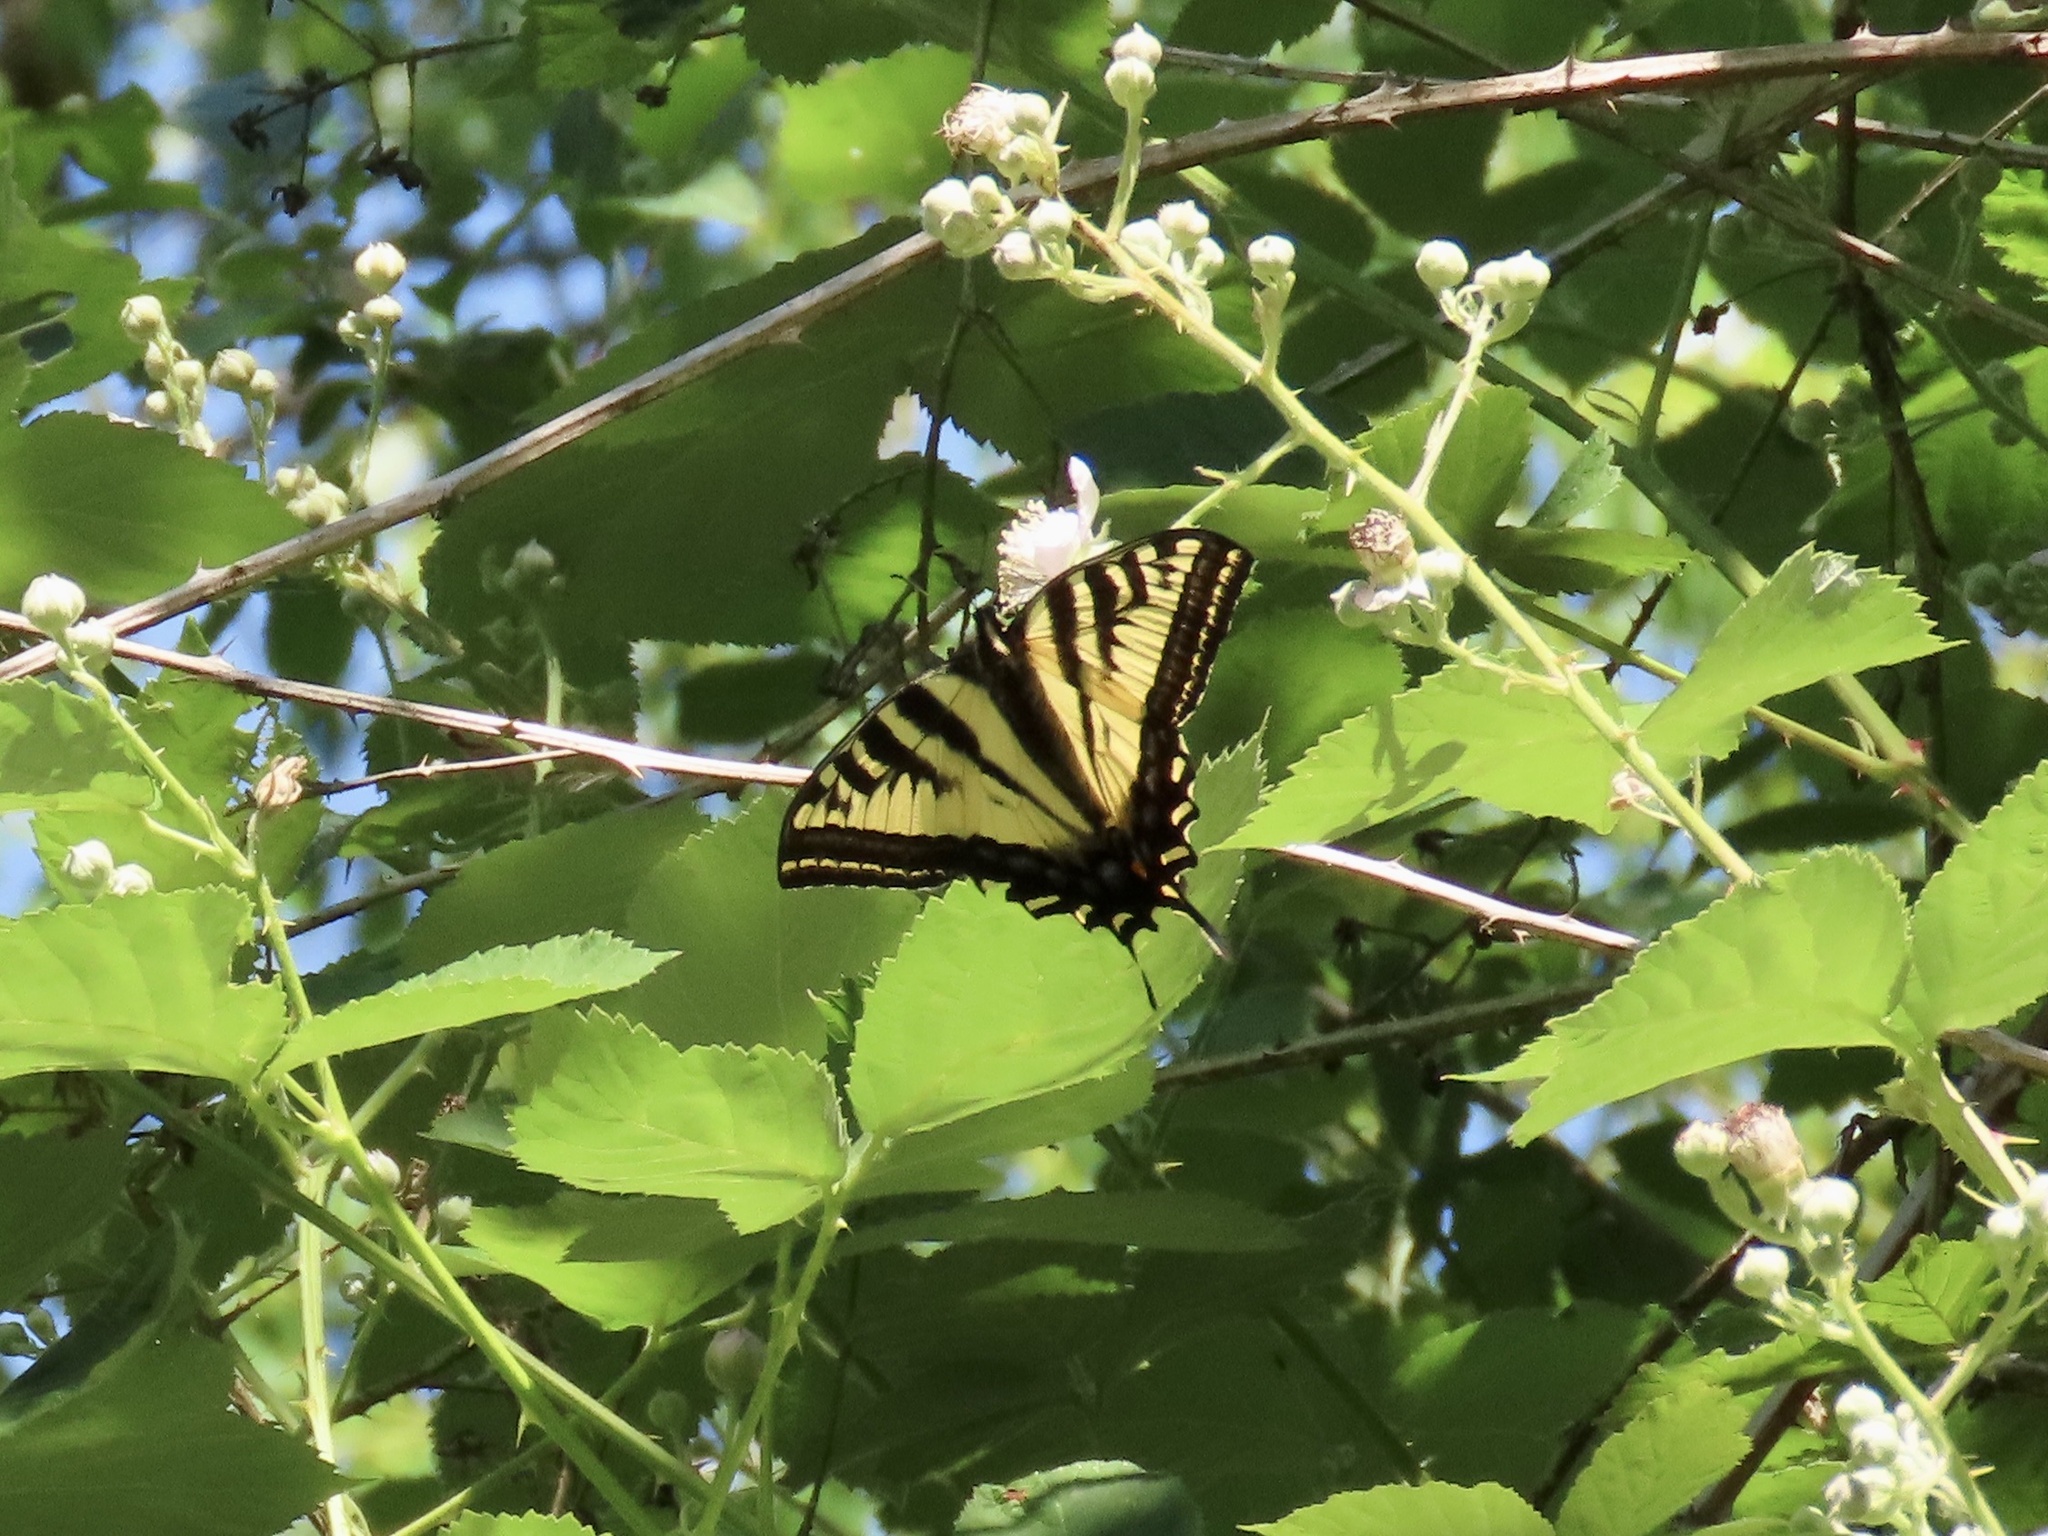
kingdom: Animalia
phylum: Arthropoda
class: Insecta
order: Lepidoptera
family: Papilionidae
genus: Papilio
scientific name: Papilio rutulus
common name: Western tiger swallowtail
